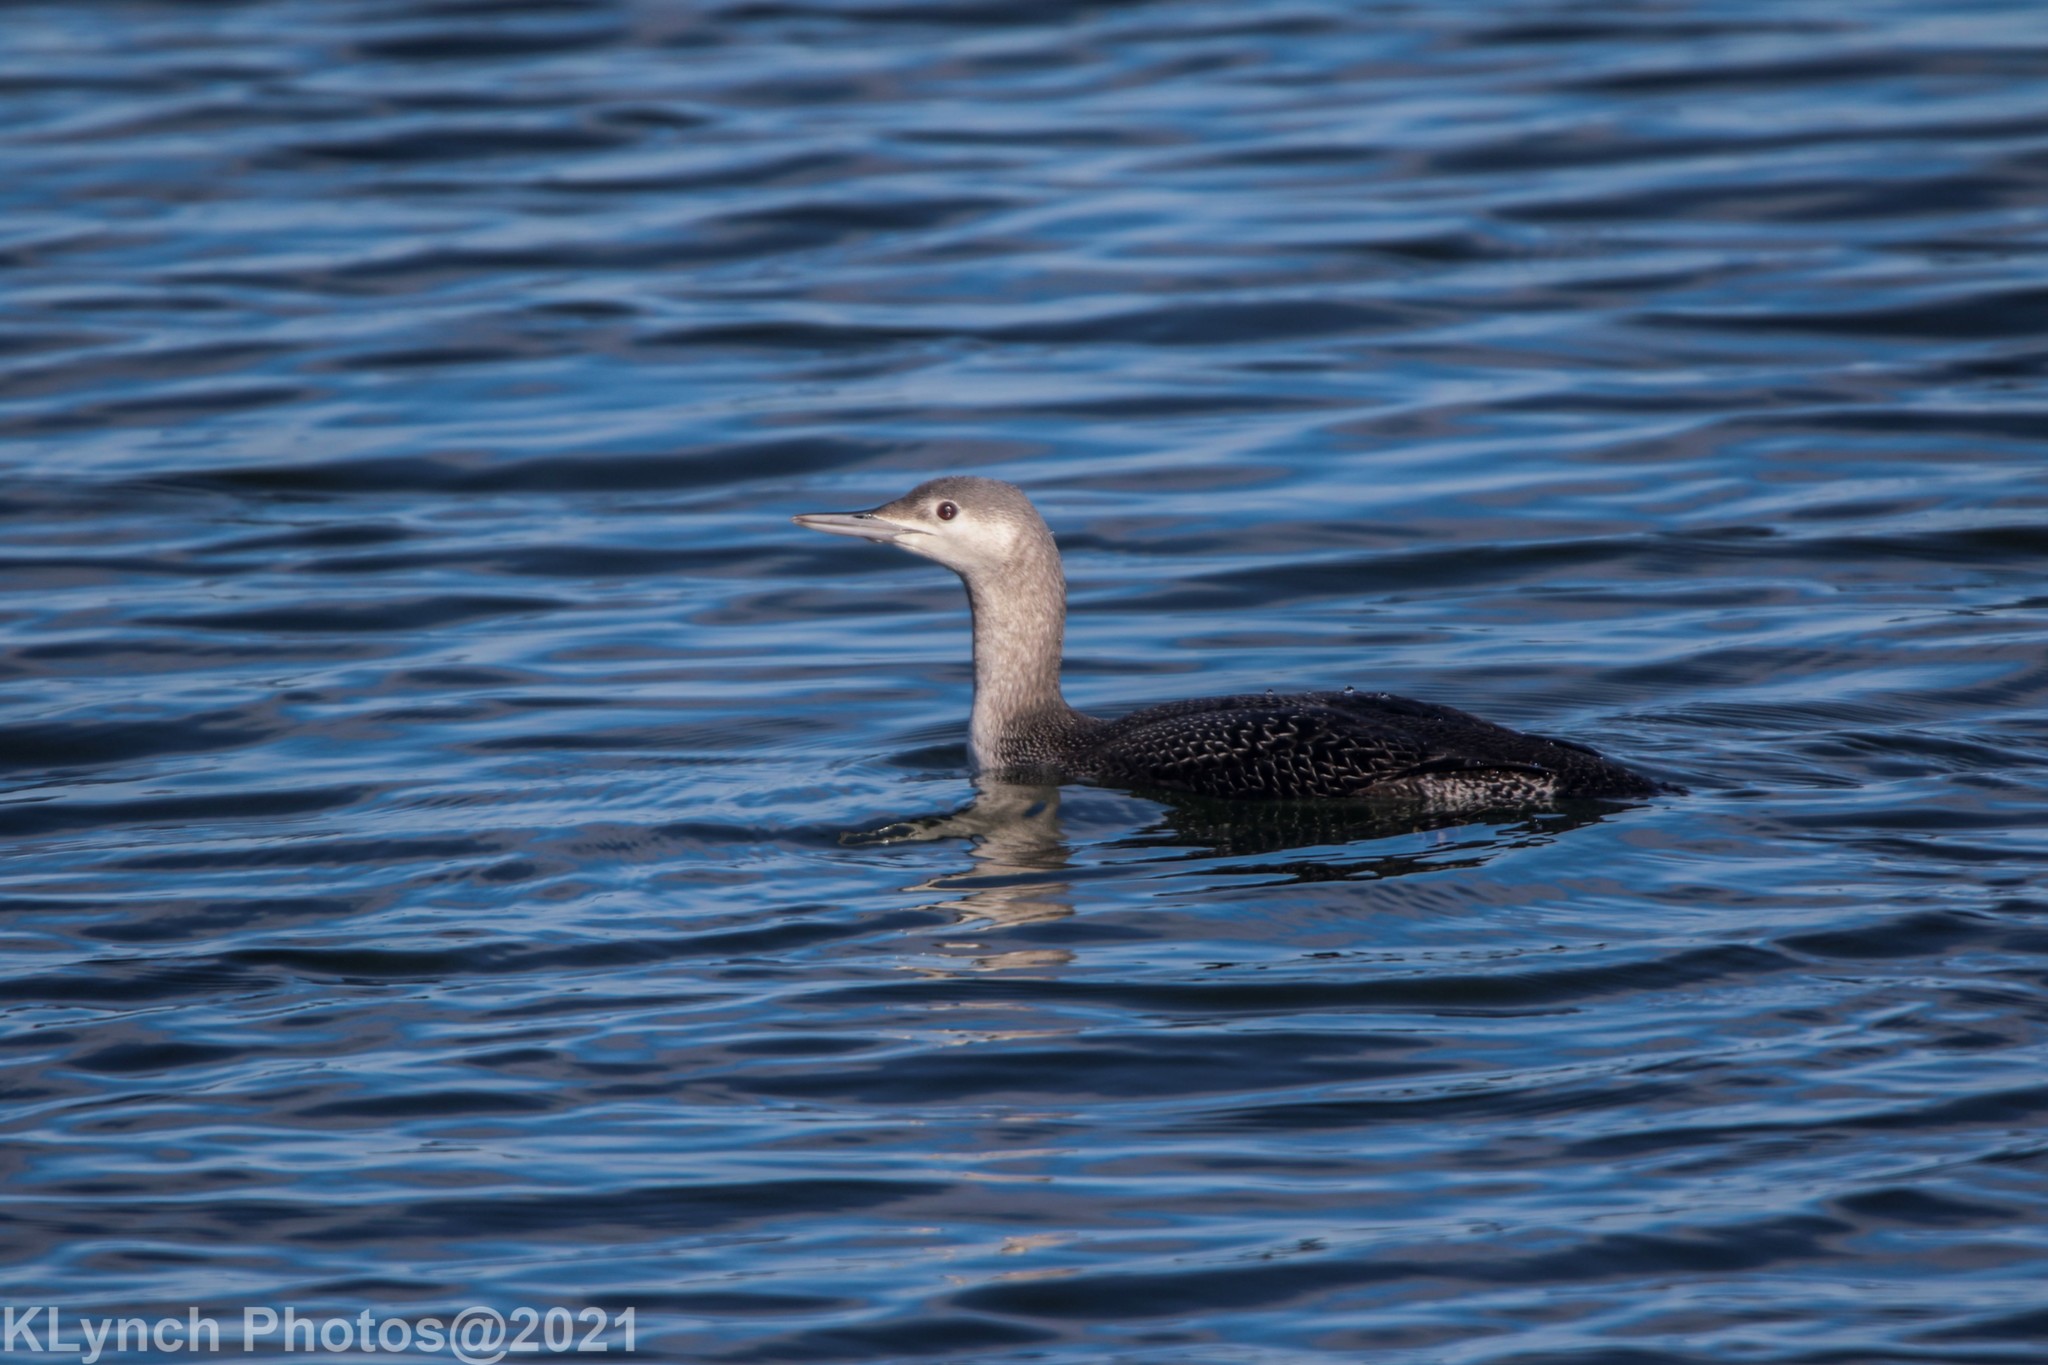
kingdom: Animalia
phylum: Chordata
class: Aves
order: Gaviiformes
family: Gaviidae
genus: Gavia
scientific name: Gavia stellata
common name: Red-throated loon
